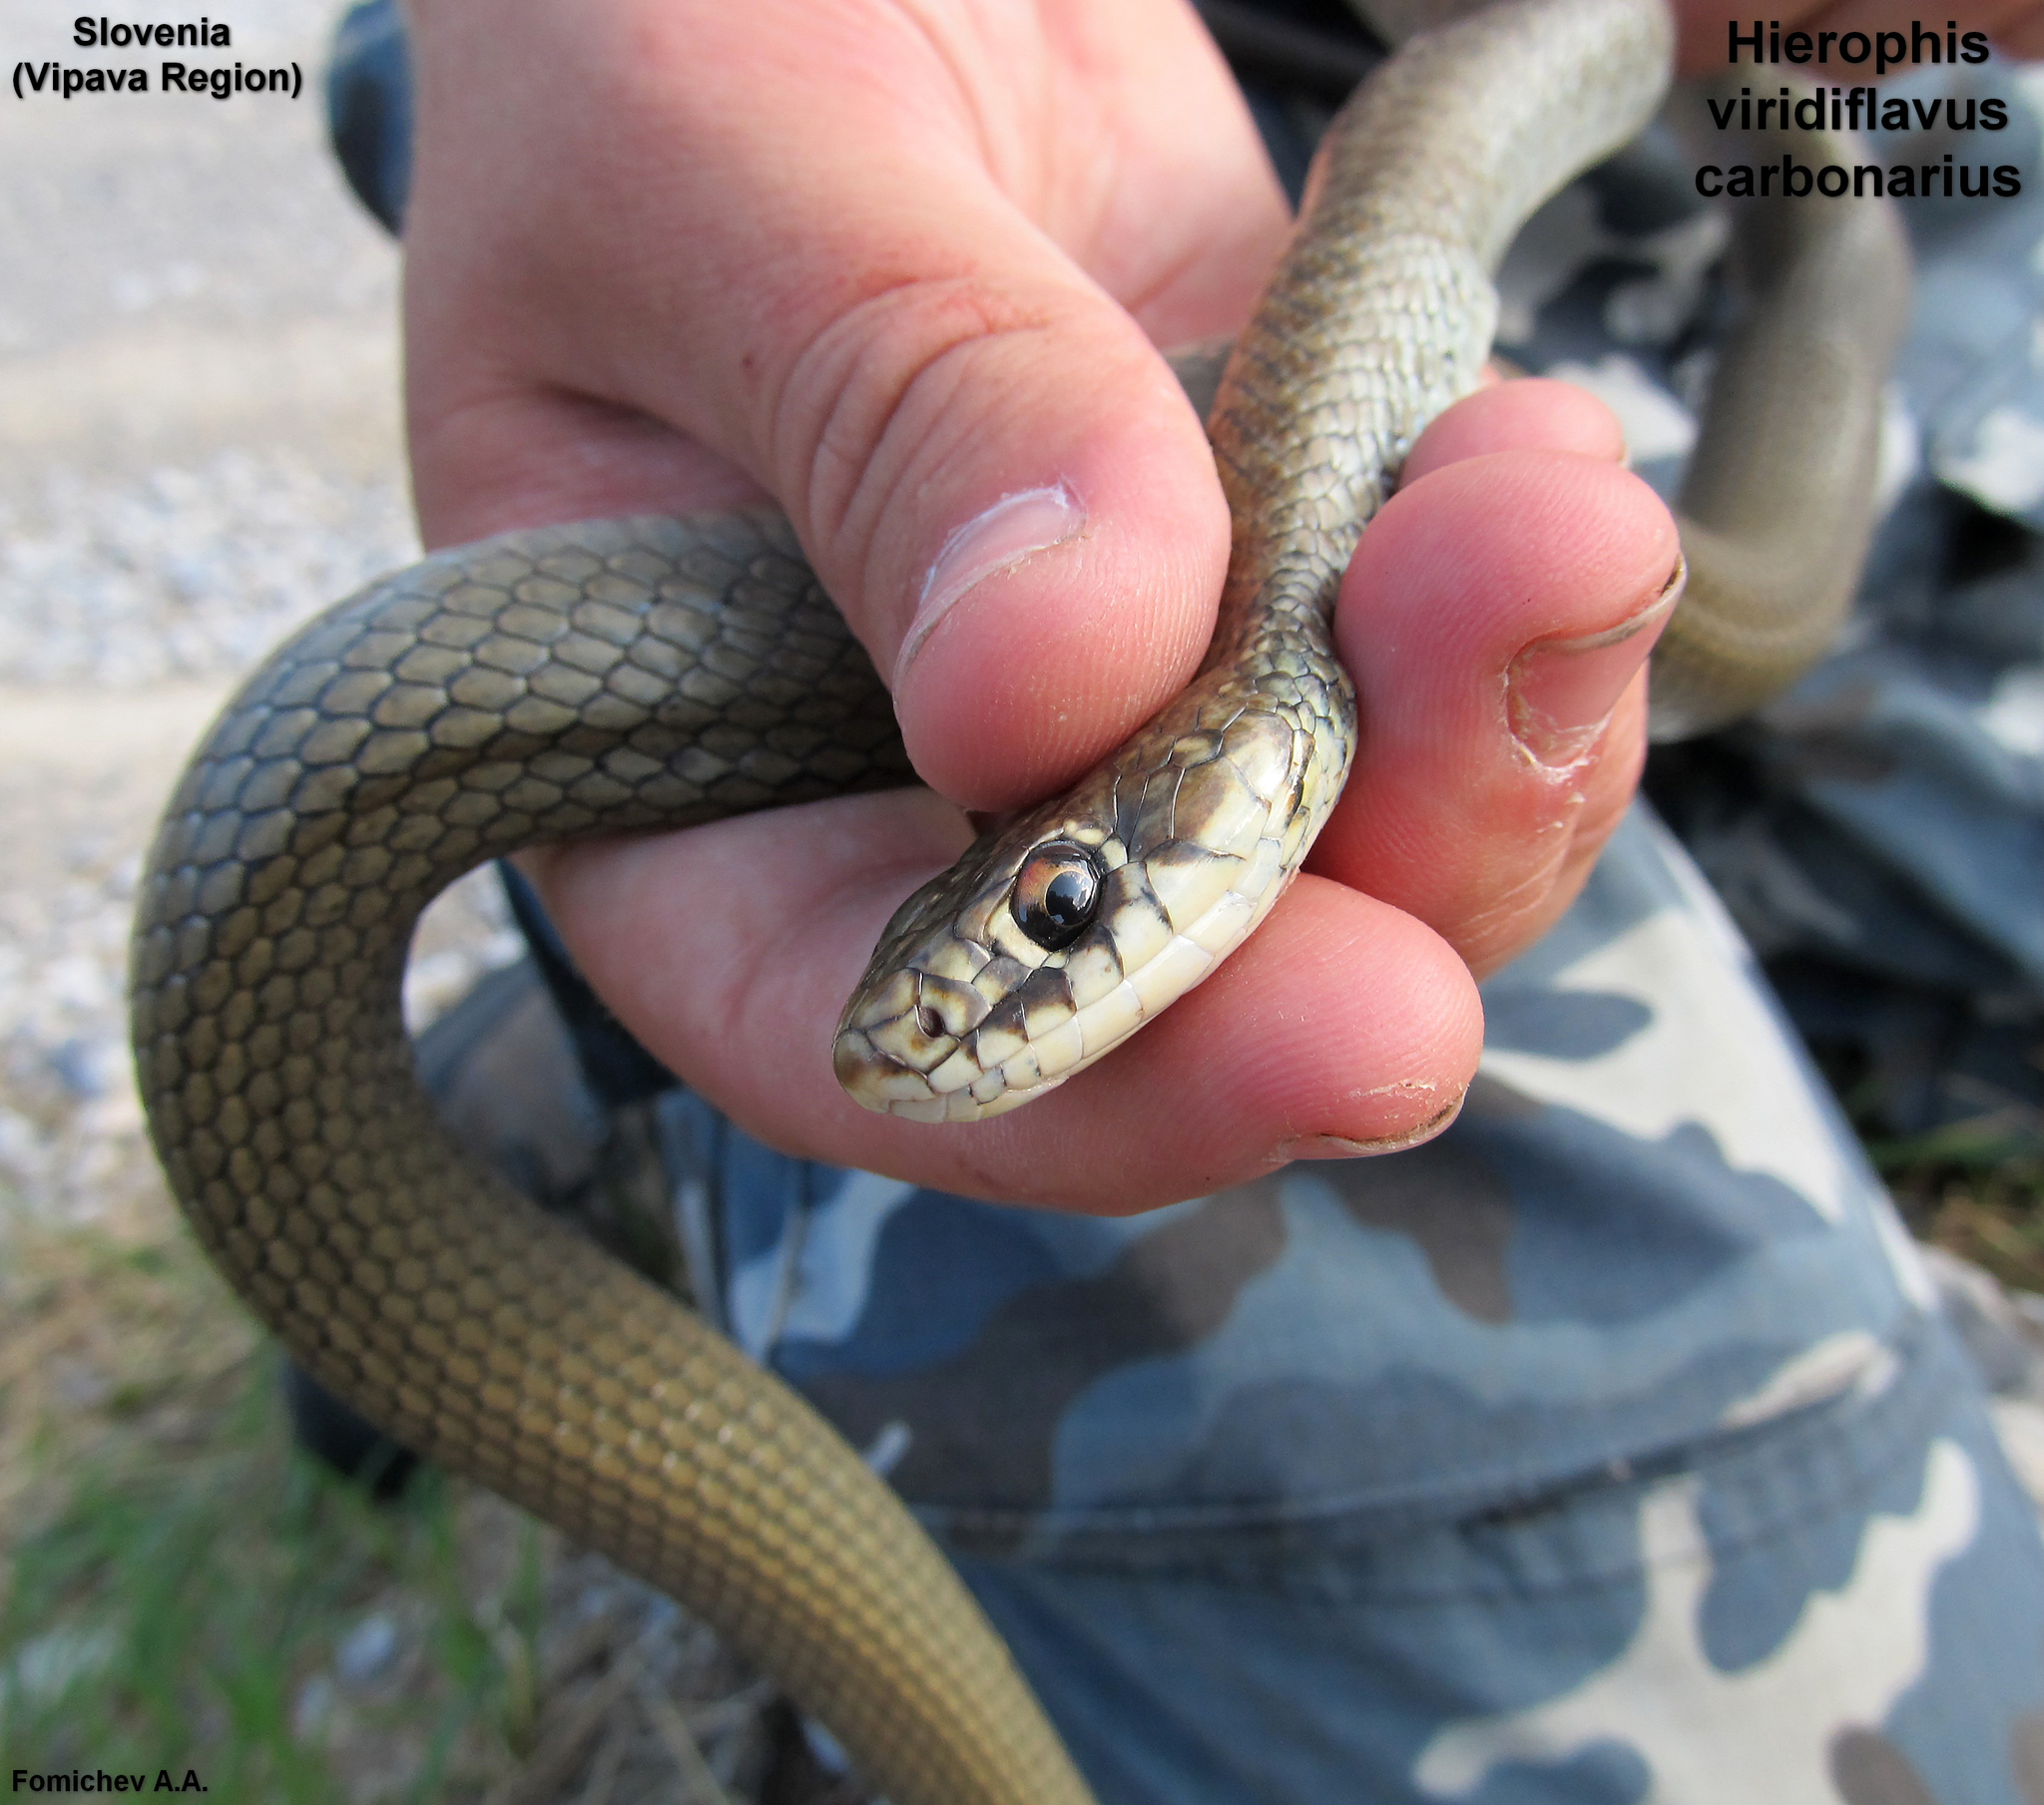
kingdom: Animalia
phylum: Chordata
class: Squamata
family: Colubridae
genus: Hierophis
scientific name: Hierophis viridiflavus
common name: Green whip snake
